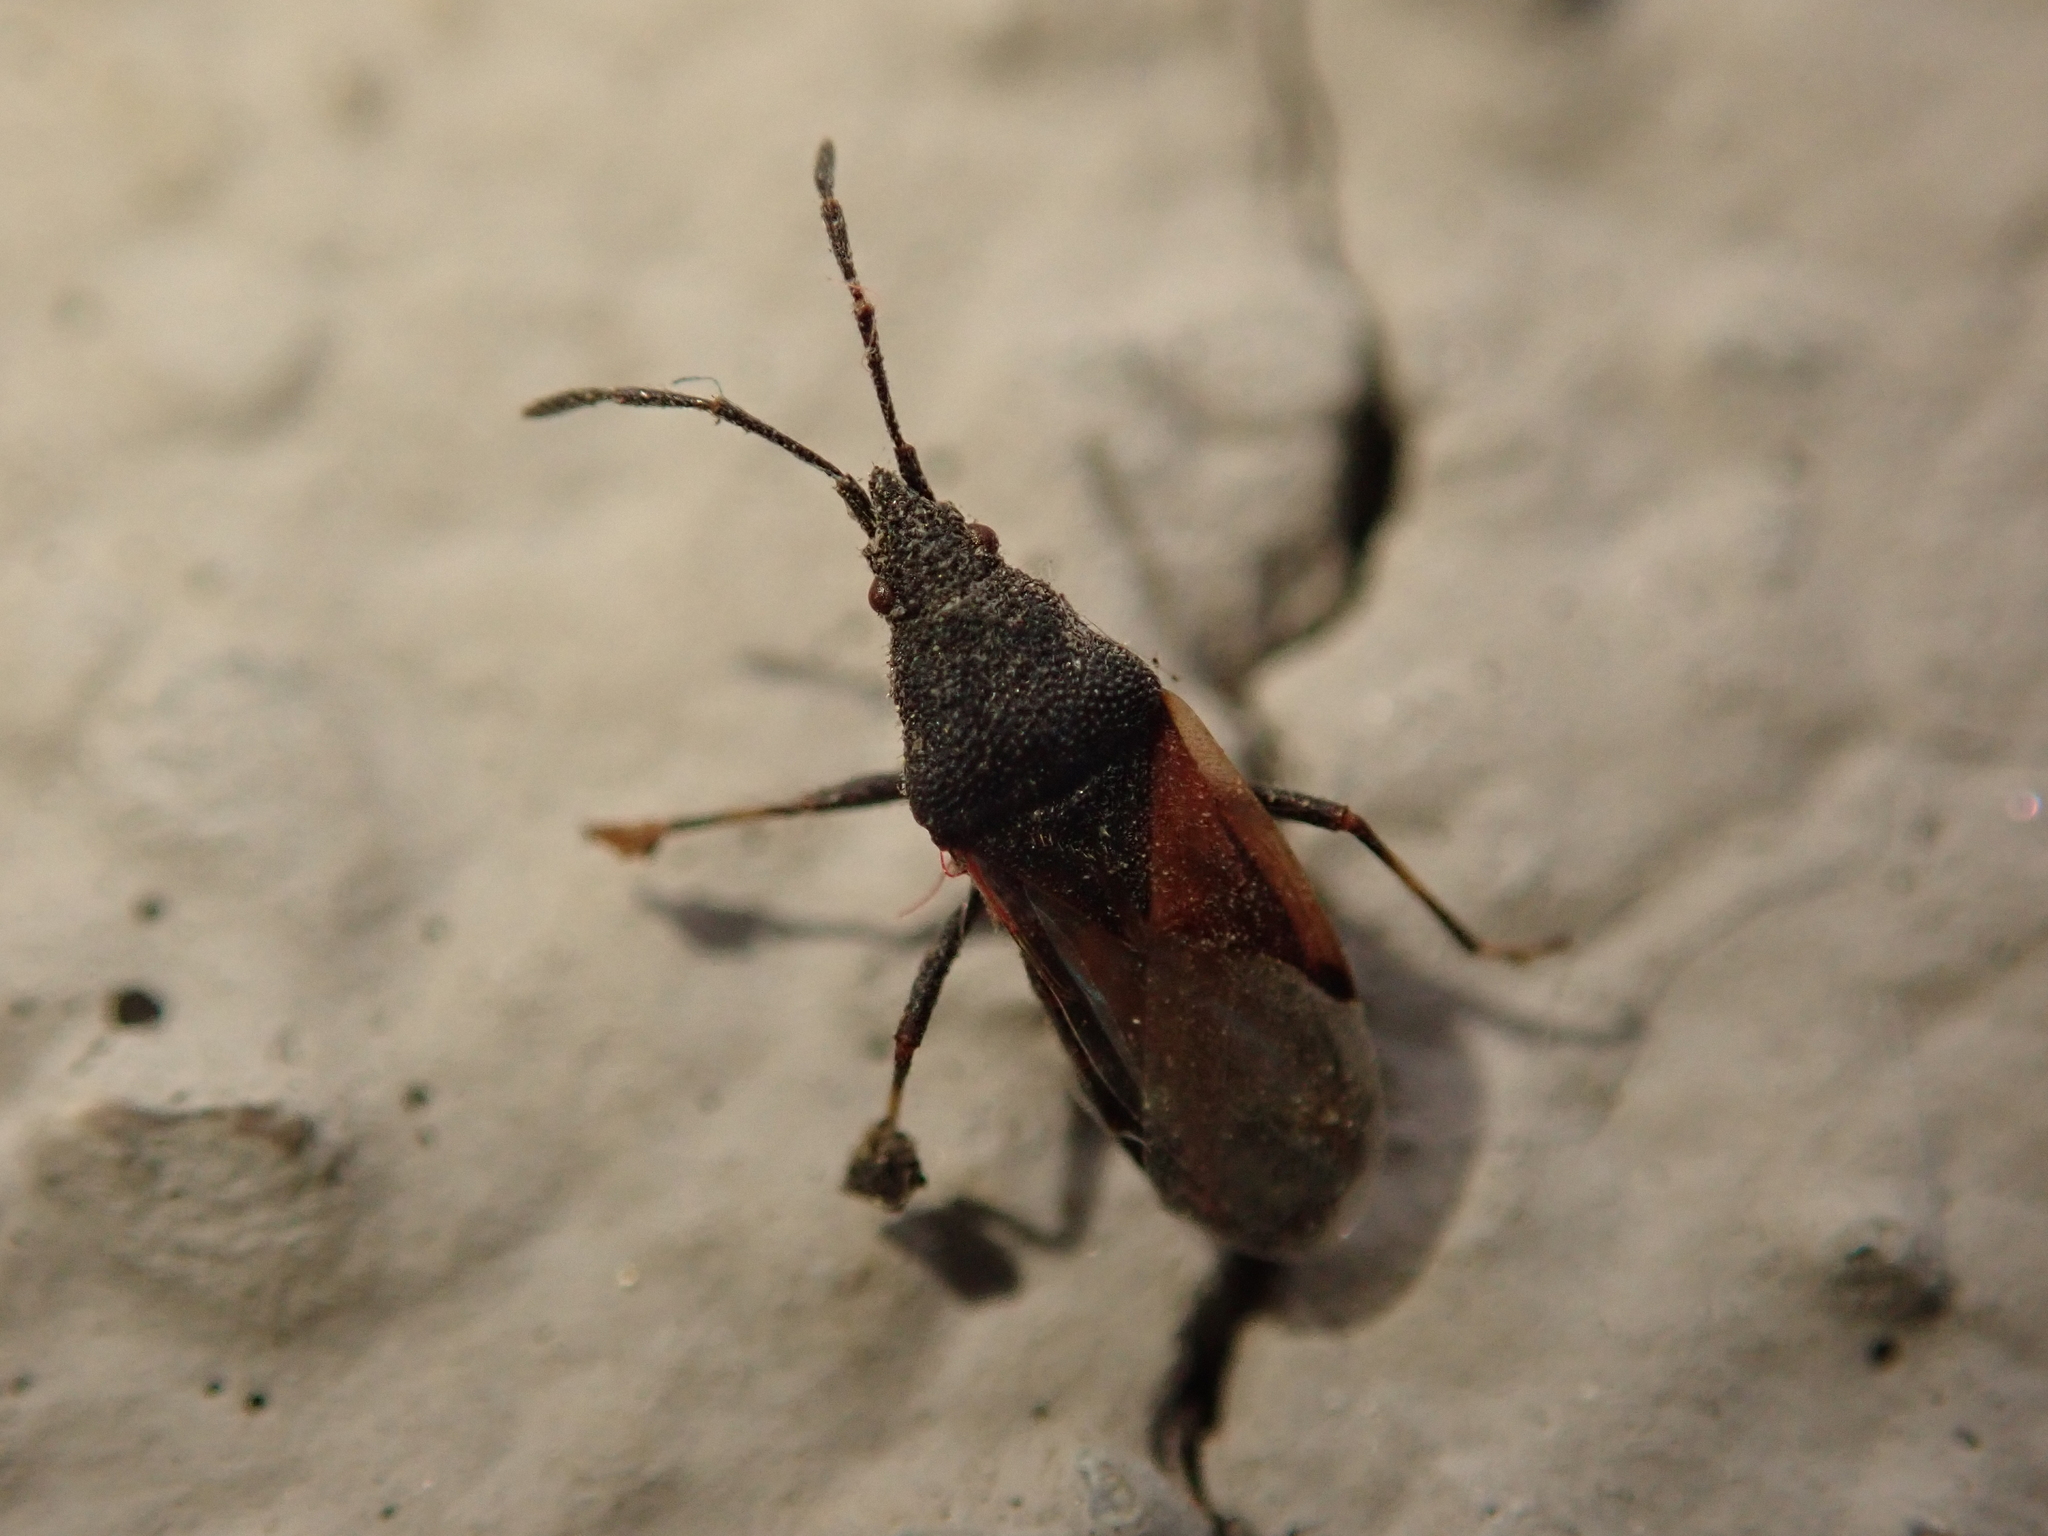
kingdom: Animalia
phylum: Arthropoda
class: Insecta
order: Hemiptera
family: Oxycarenidae
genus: Oxycarenus
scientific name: Oxycarenus lavaterae
